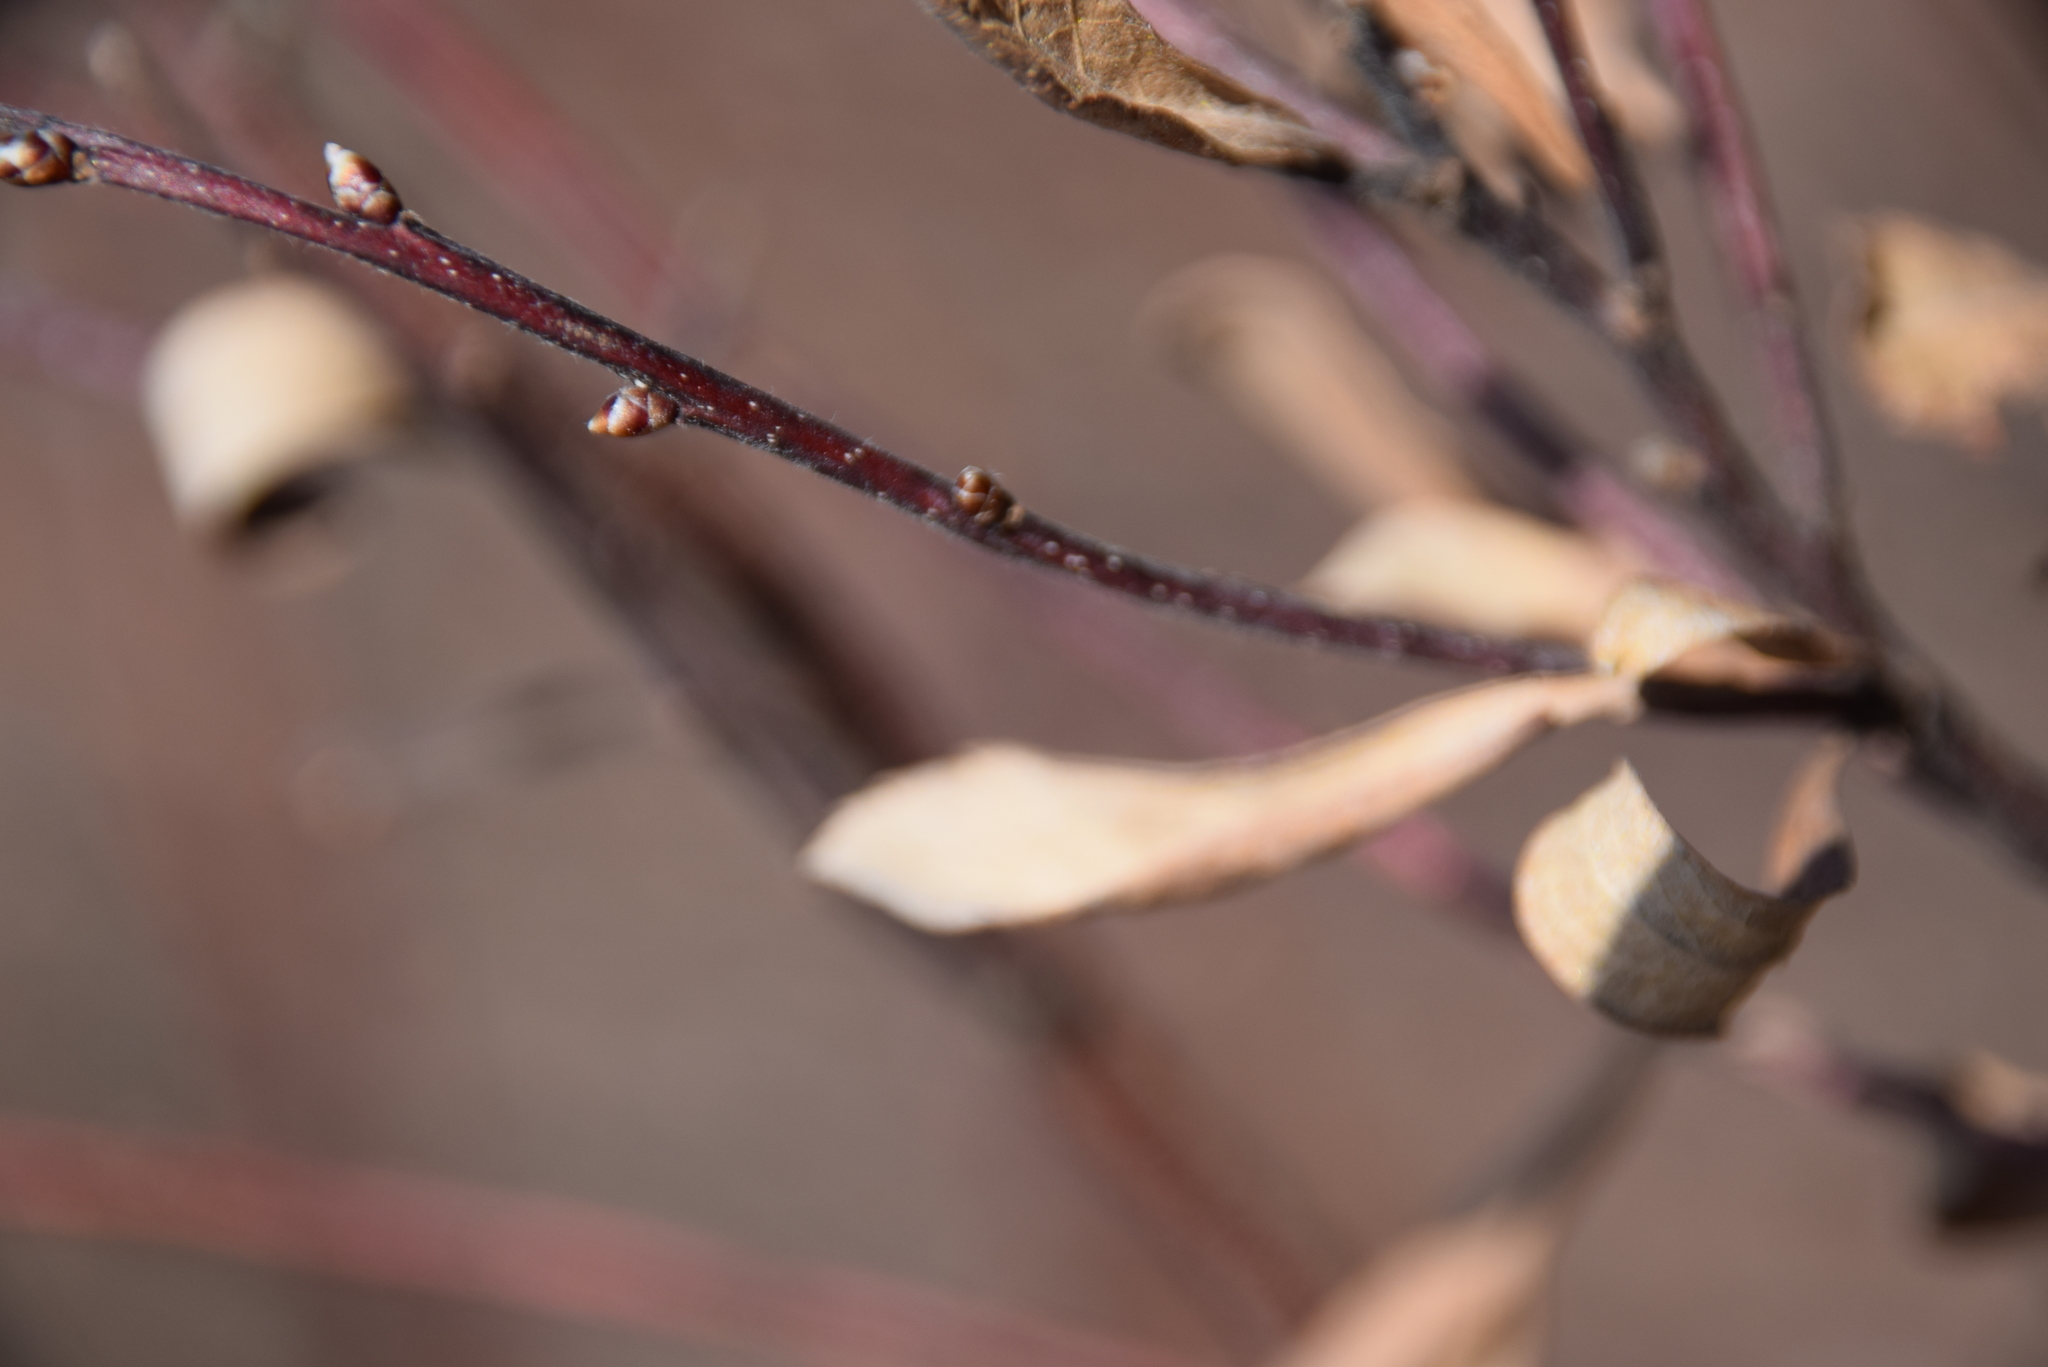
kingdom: Plantae
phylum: Tracheophyta
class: Magnoliopsida
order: Fagales
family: Myricaceae
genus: Myrica
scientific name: Myrica gale
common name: Sweet gale
